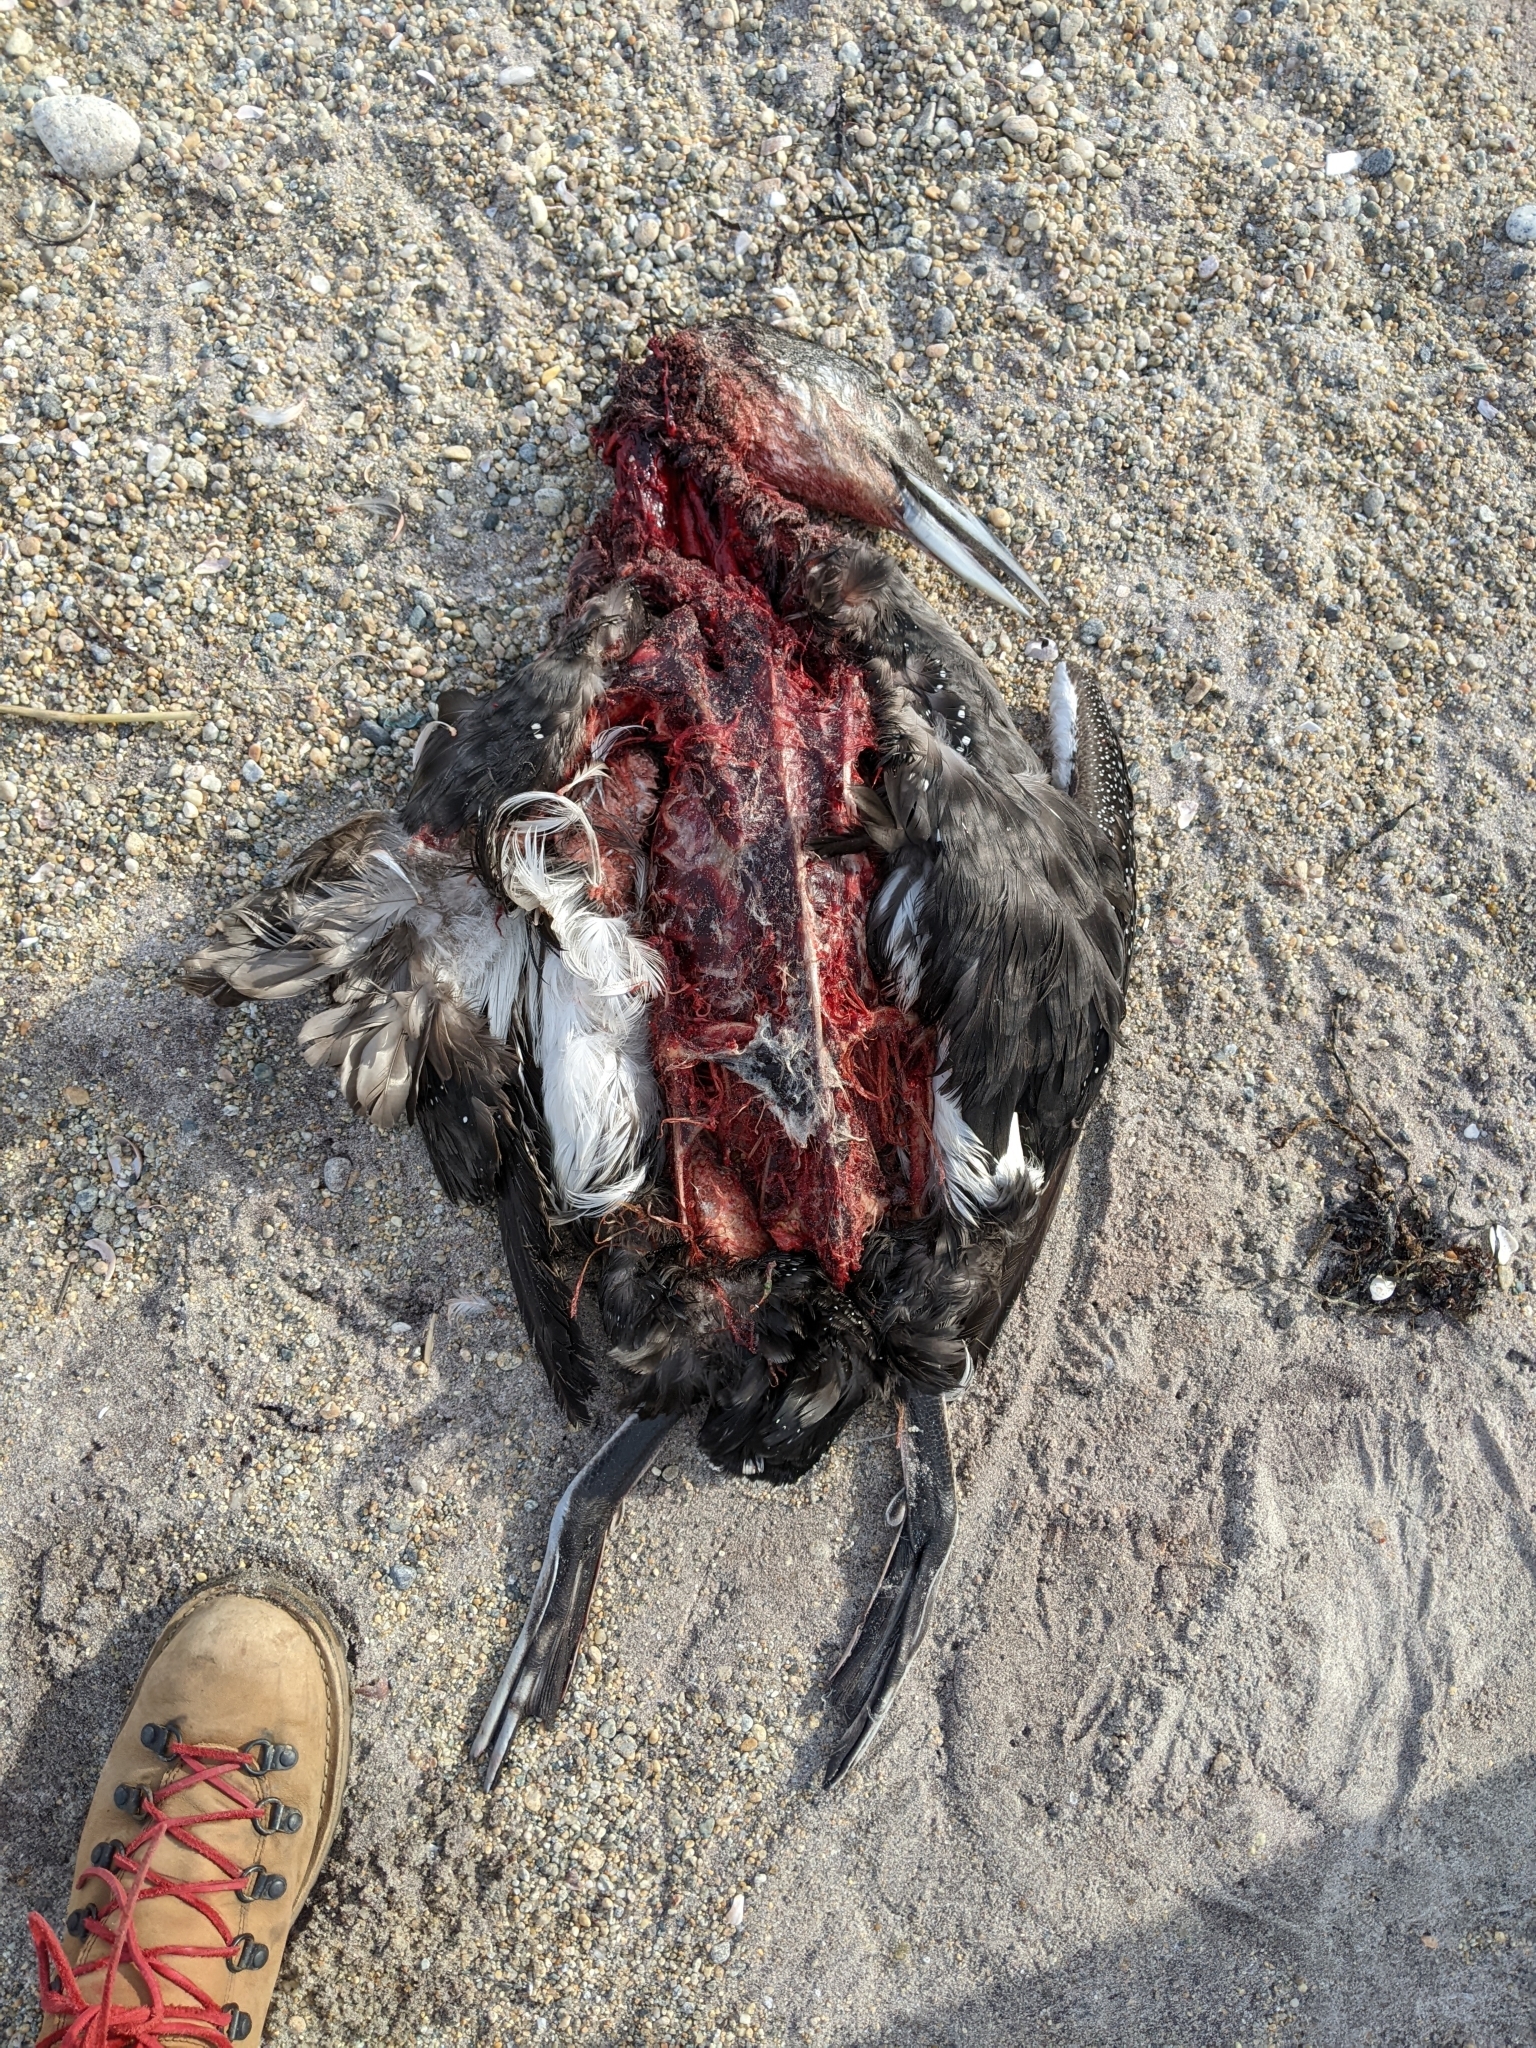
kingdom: Animalia
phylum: Chordata
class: Aves
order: Gaviiformes
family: Gaviidae
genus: Gavia
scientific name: Gavia immer
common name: Common loon
